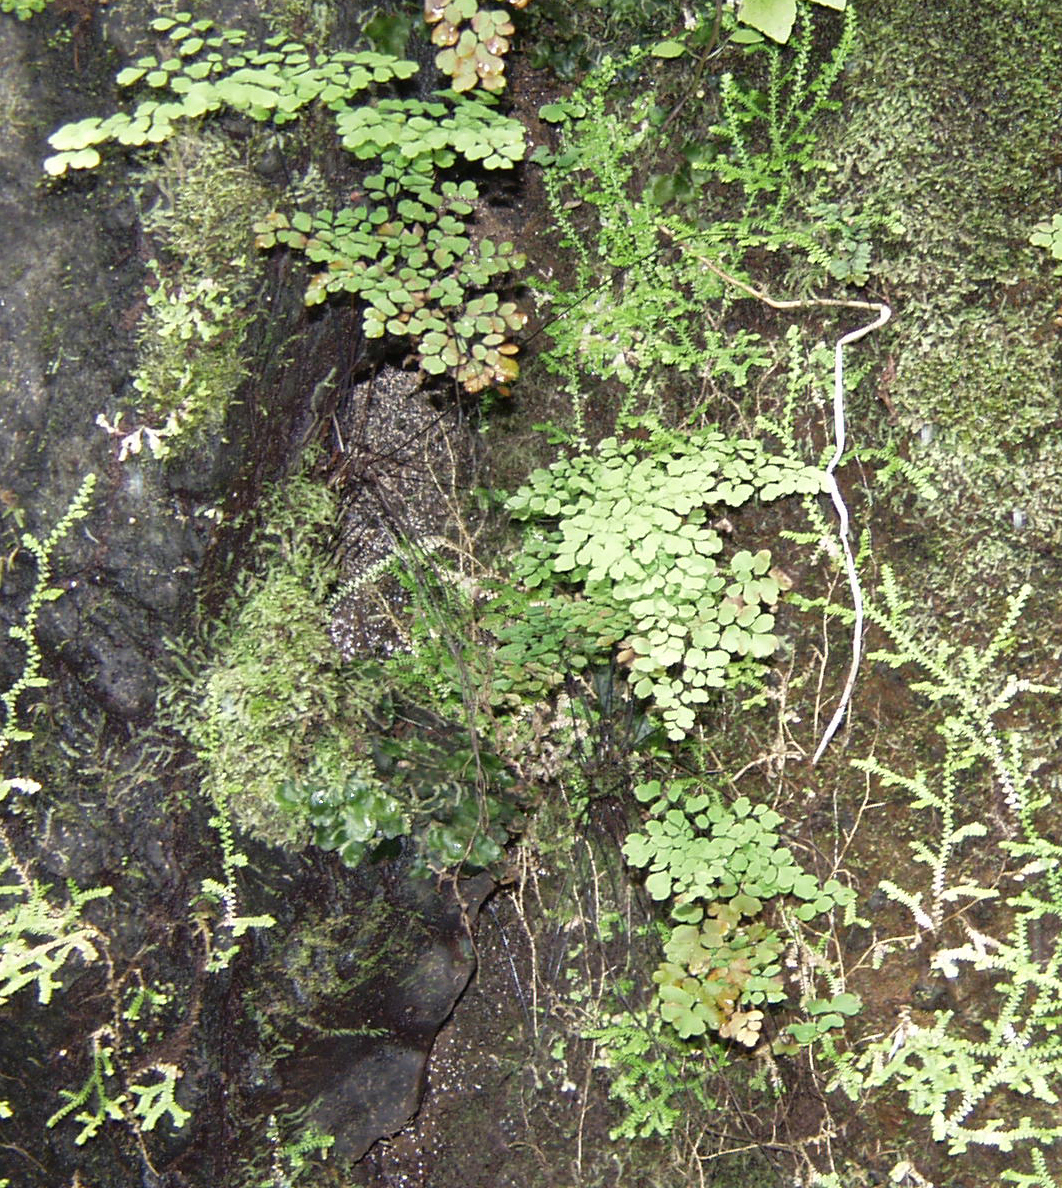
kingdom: Plantae
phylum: Tracheophyta
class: Polypodiopsida
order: Polypodiales
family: Pteridaceae
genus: Adiantum
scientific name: Adiantum capillus-veneris
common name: Maidenhair fern
